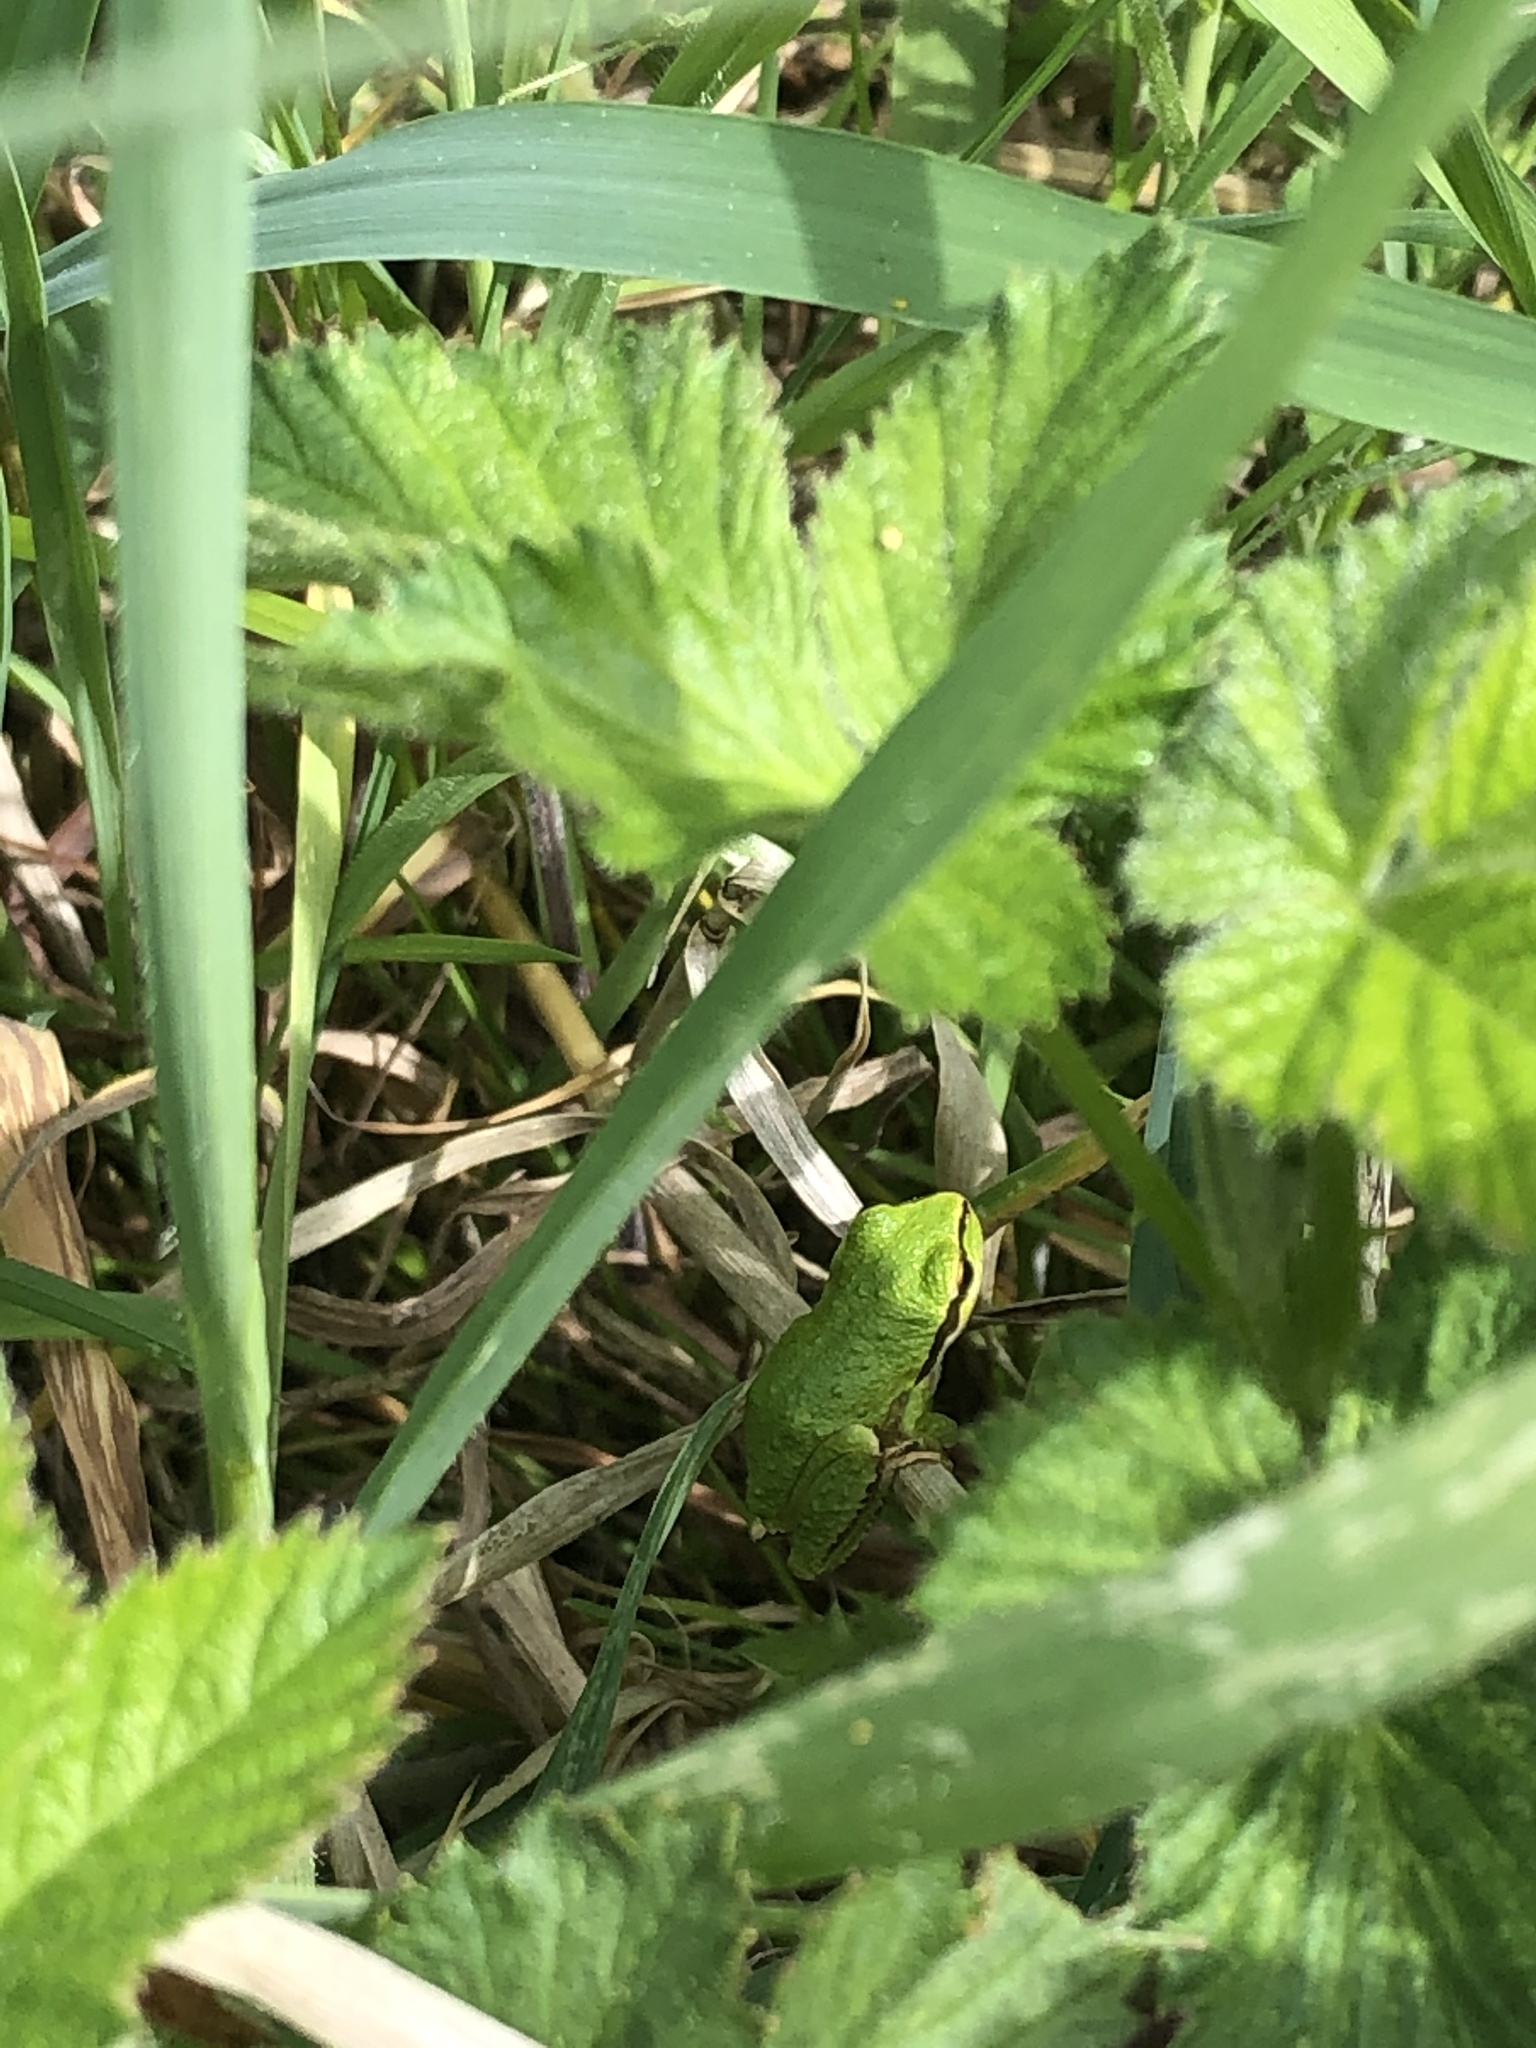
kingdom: Animalia
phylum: Chordata
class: Amphibia
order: Anura
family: Hylidae
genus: Pseudacris
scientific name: Pseudacris regilla
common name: Pacific chorus frog
